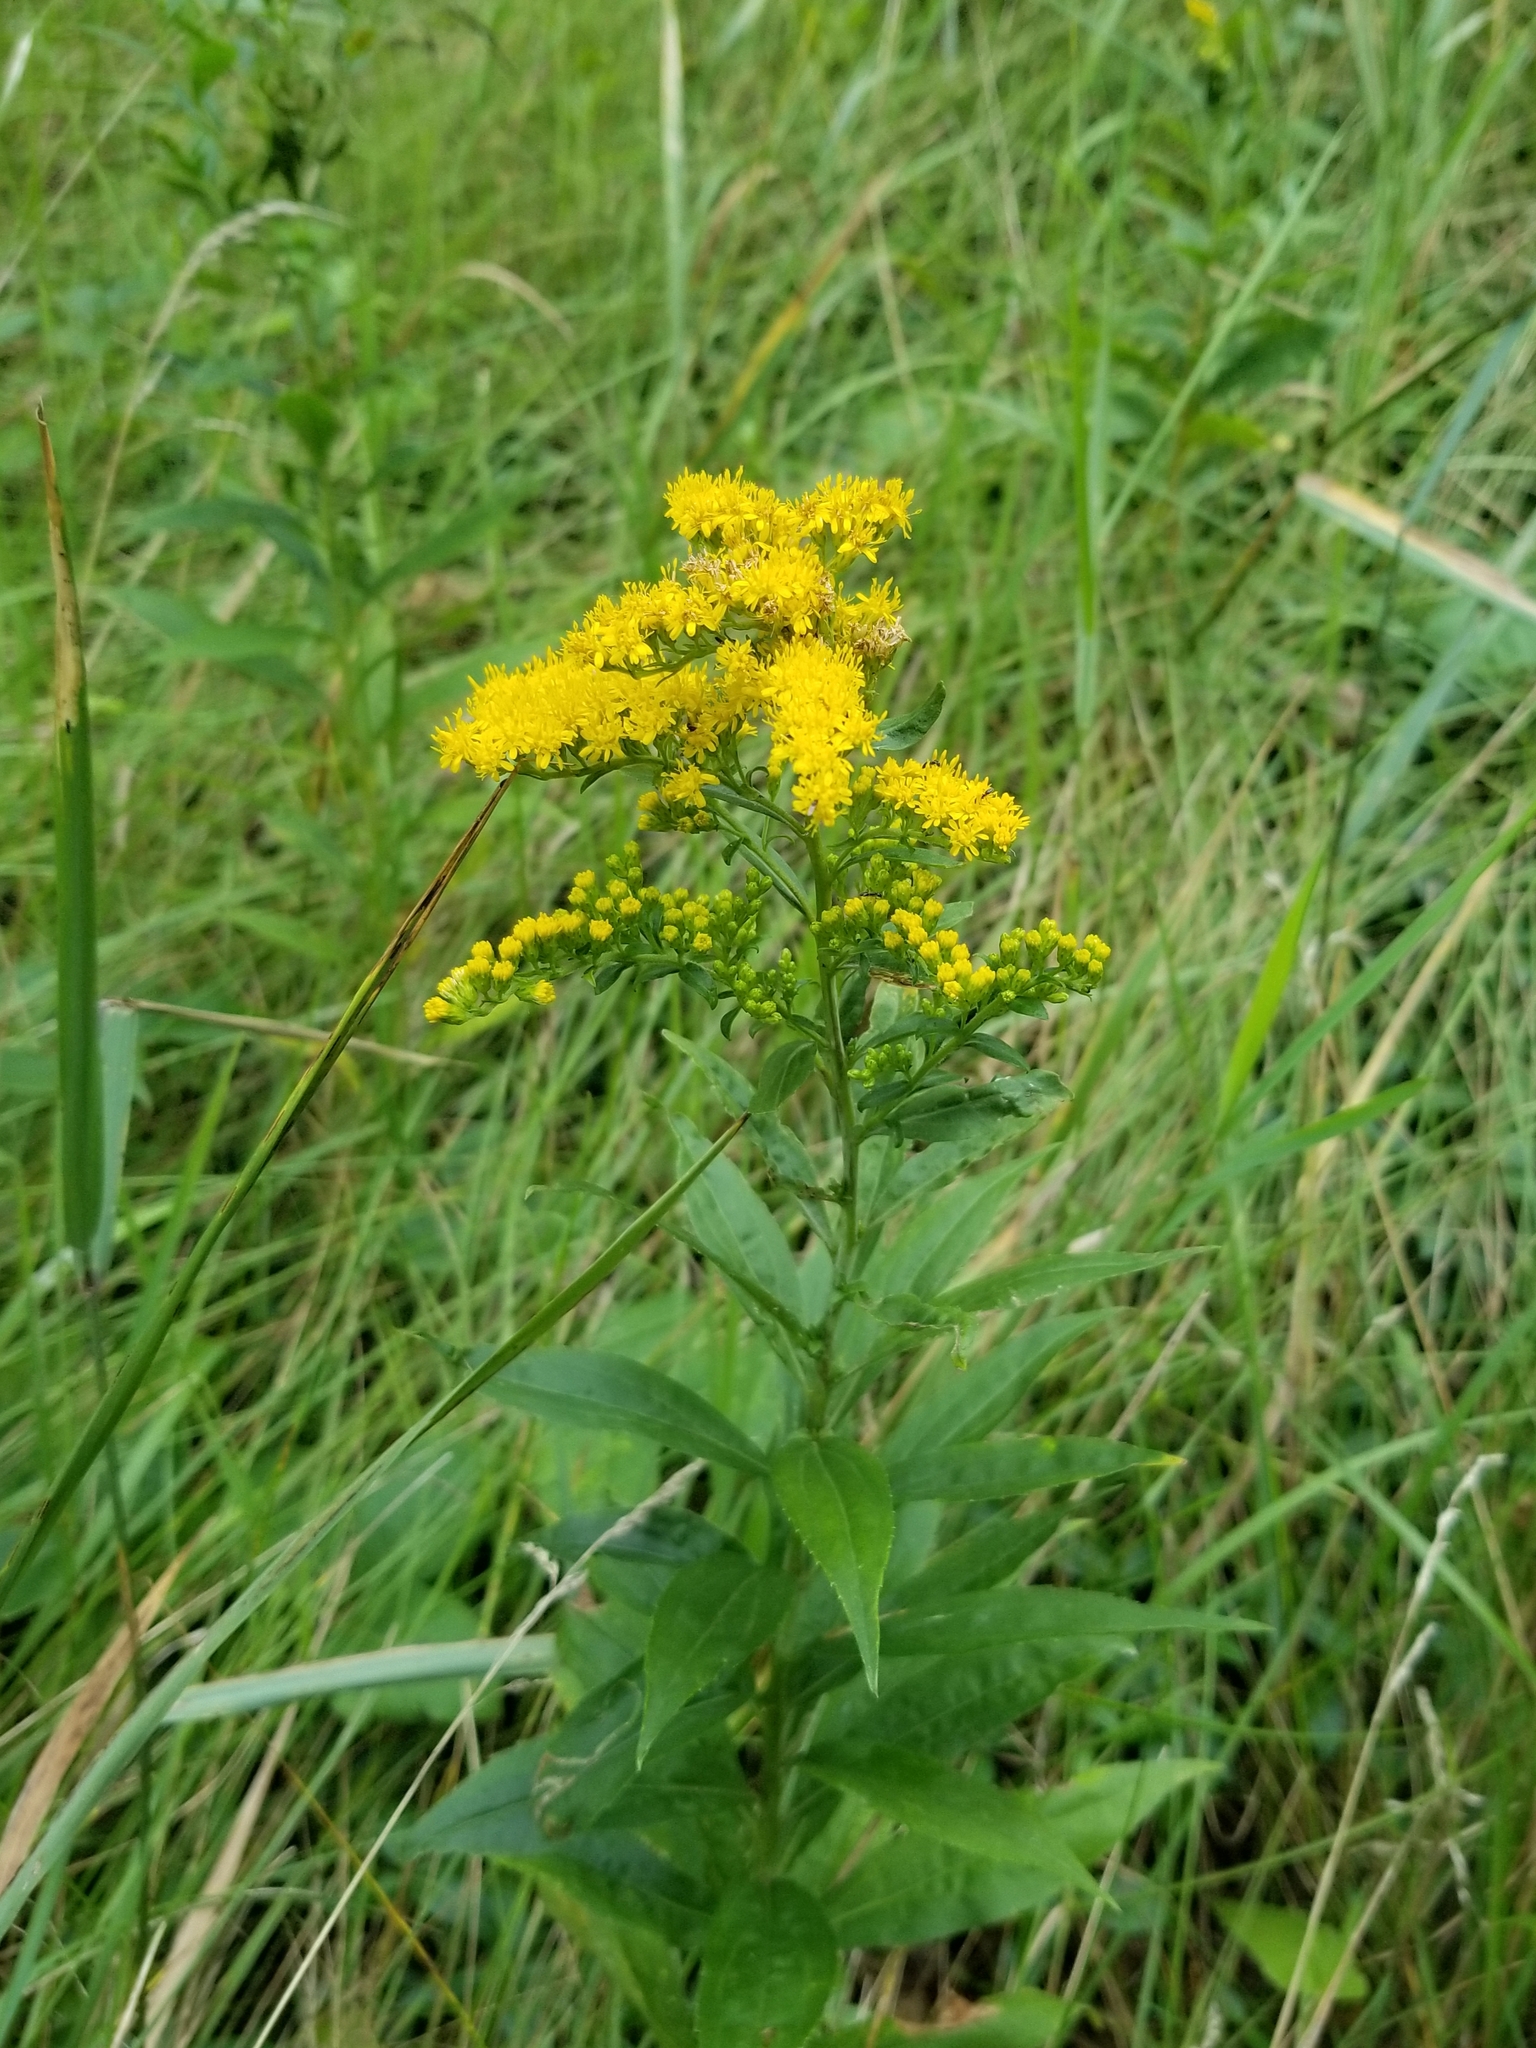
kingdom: Plantae
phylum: Tracheophyta
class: Magnoliopsida
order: Asterales
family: Asteraceae
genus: Solidago
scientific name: Solidago gigantea
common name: Giant goldenrod
